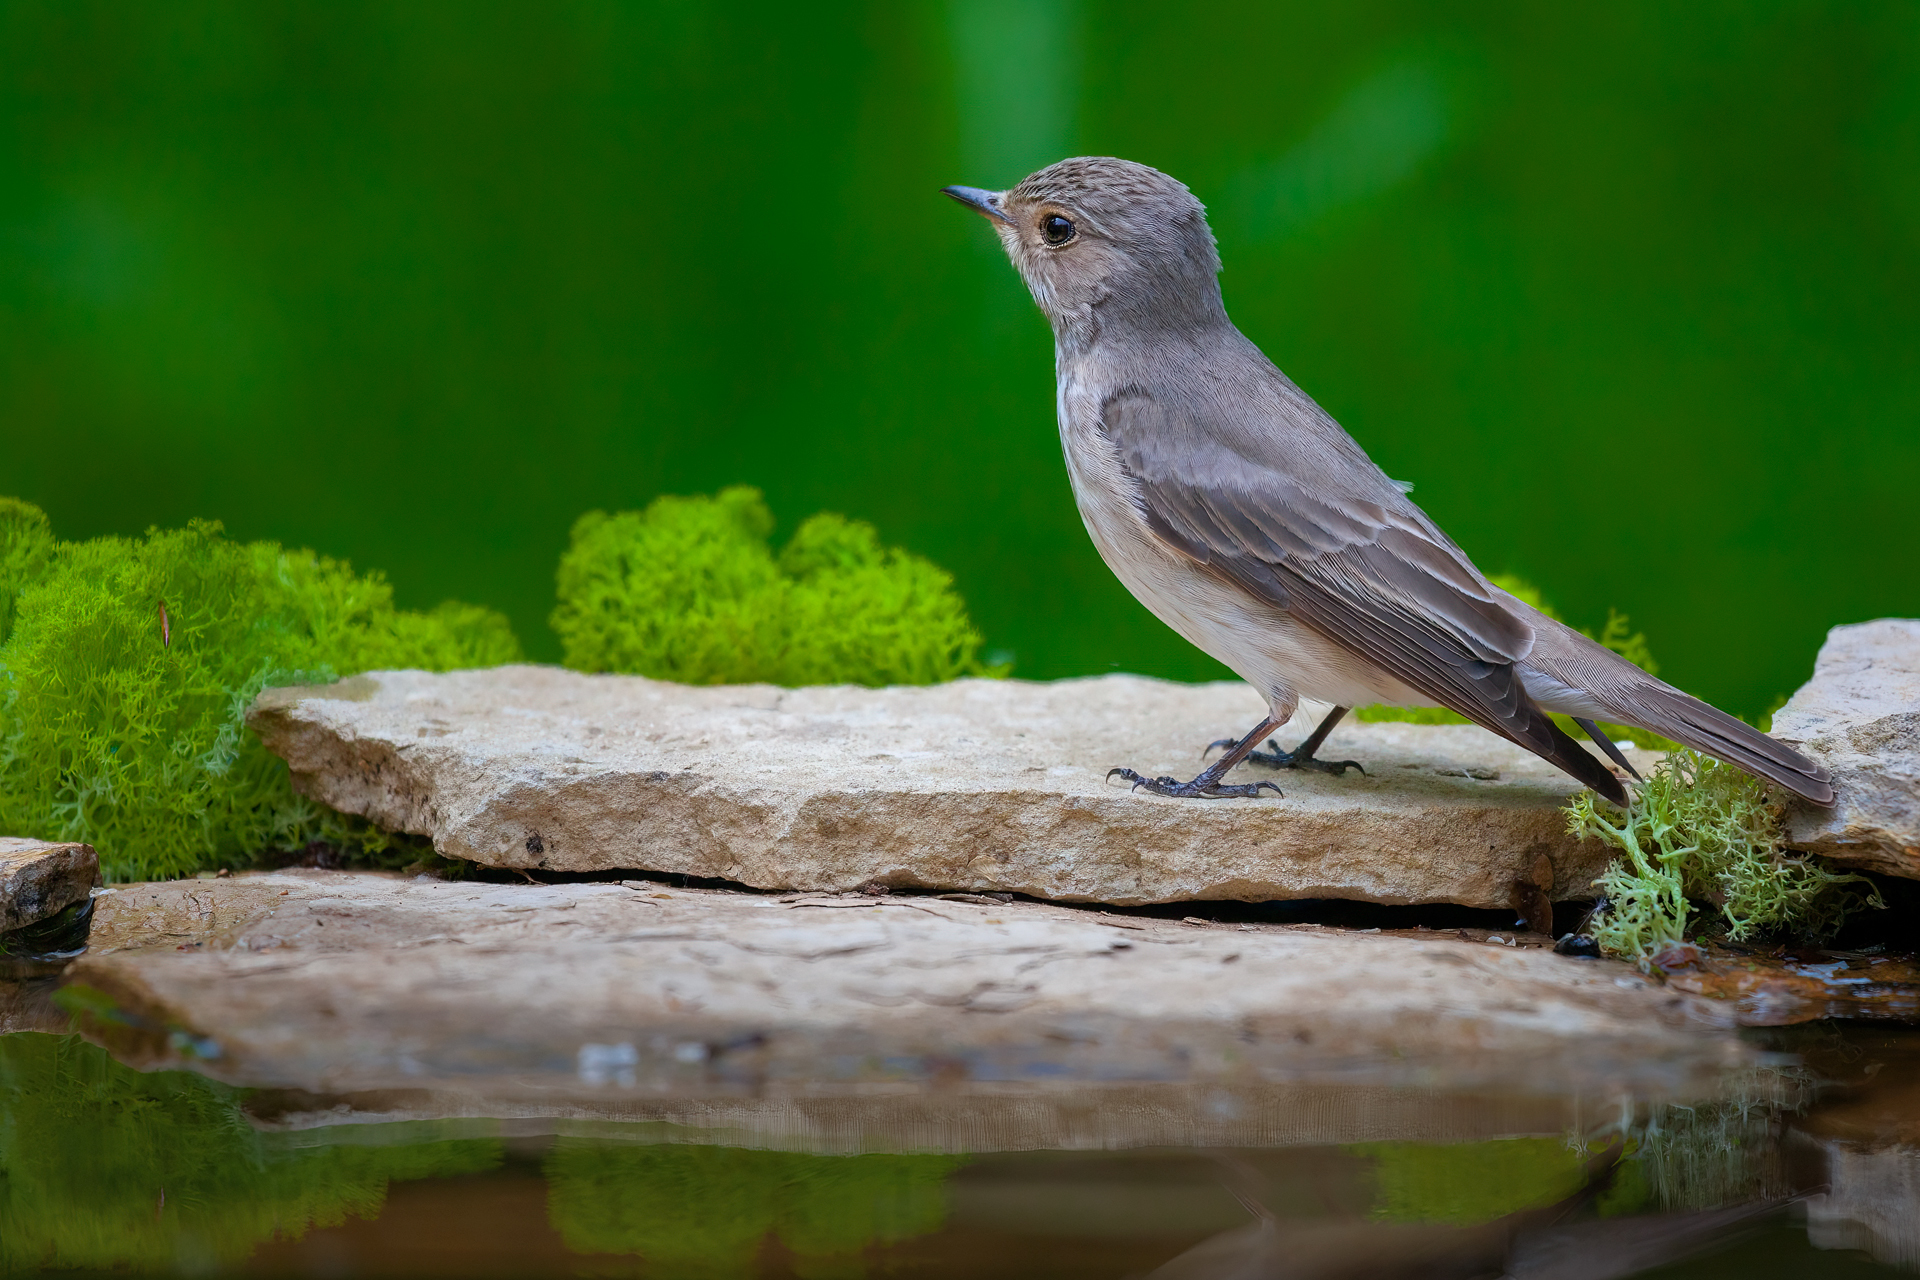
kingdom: Animalia
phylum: Chordata
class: Aves
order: Passeriformes
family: Muscicapidae
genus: Muscicapa
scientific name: Muscicapa striata
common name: Spotted flycatcher
